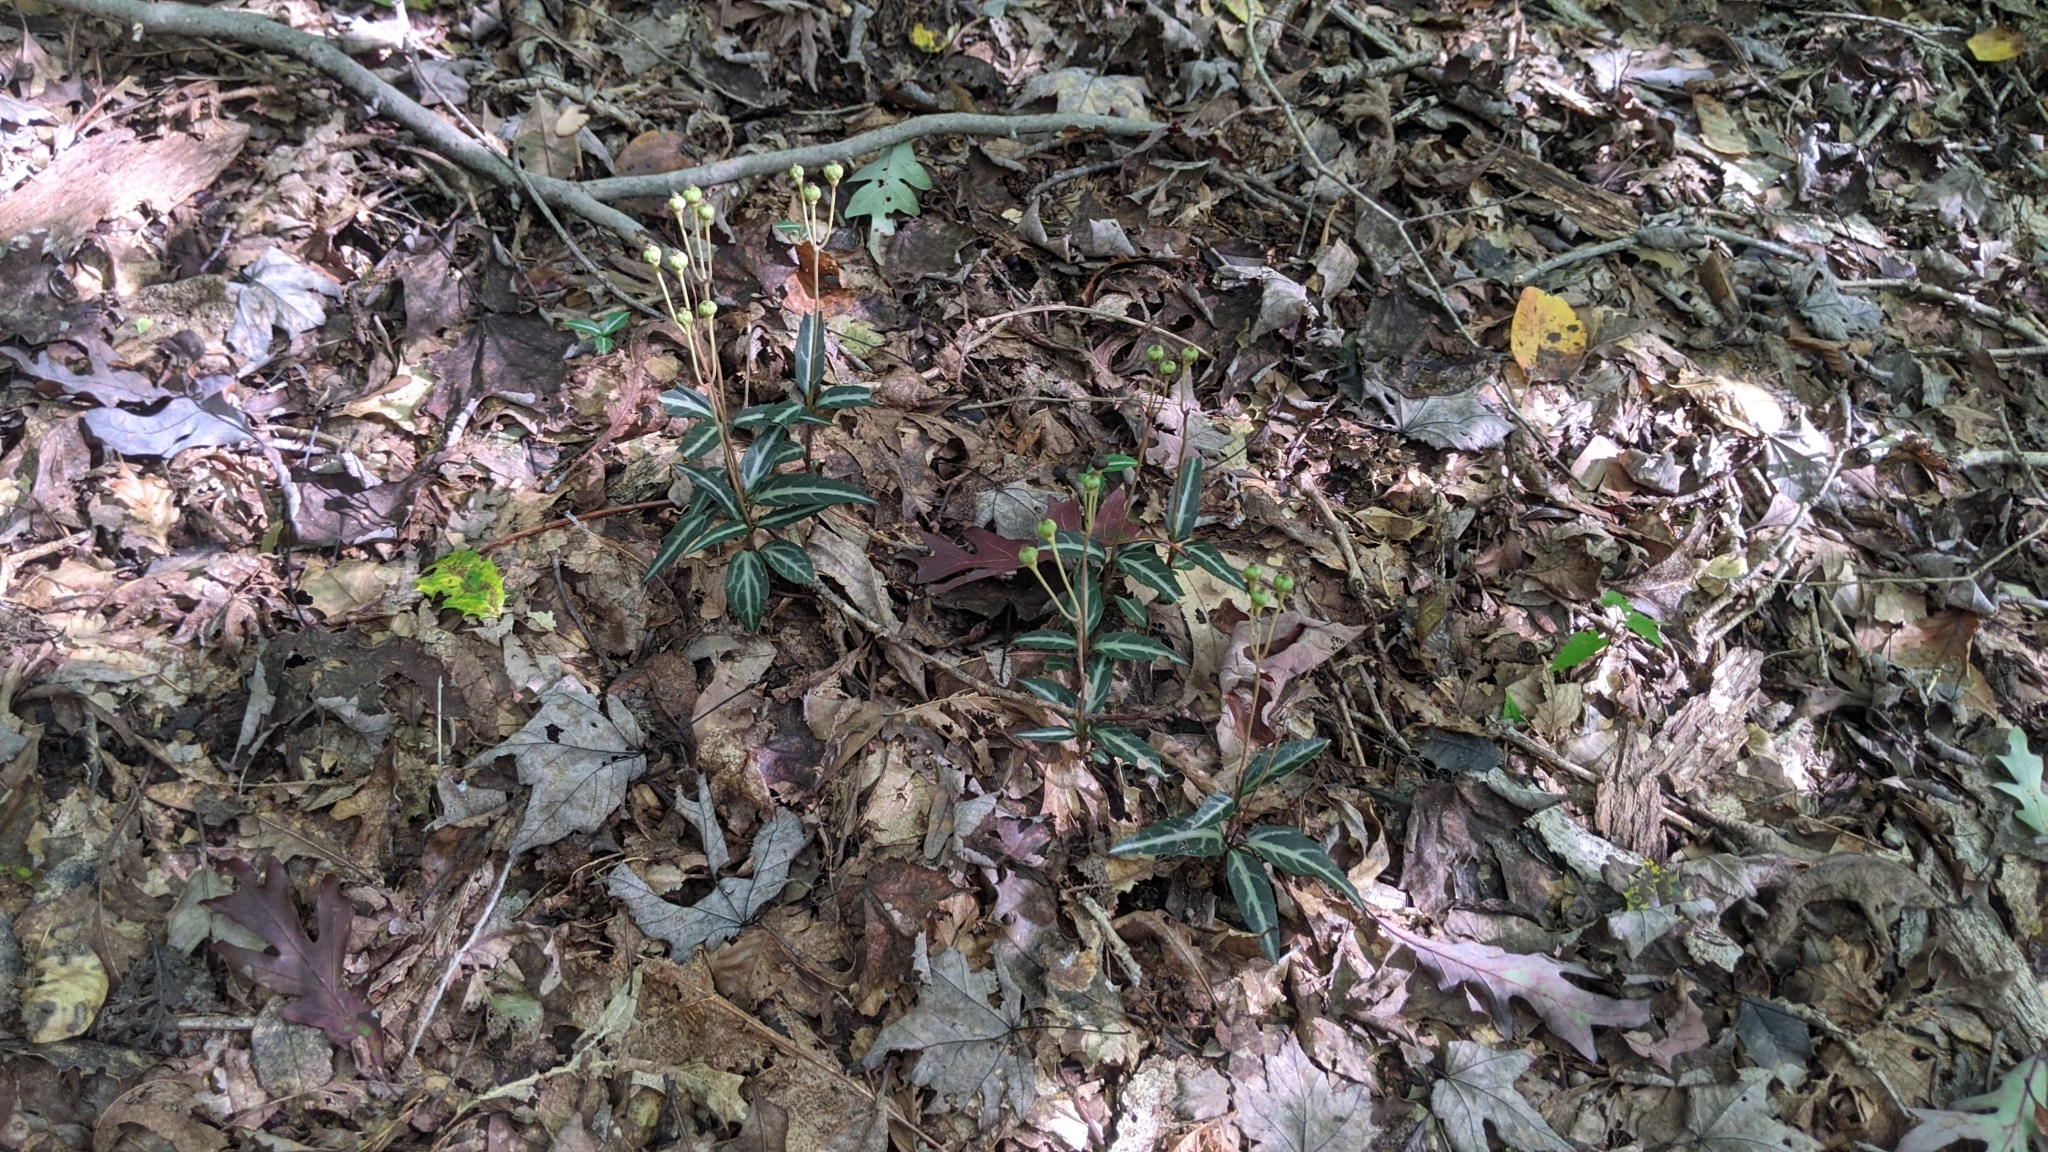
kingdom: Plantae
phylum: Tracheophyta
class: Magnoliopsida
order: Ericales
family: Ericaceae
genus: Chimaphila
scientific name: Chimaphila maculata
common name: Spotted pipsissewa
